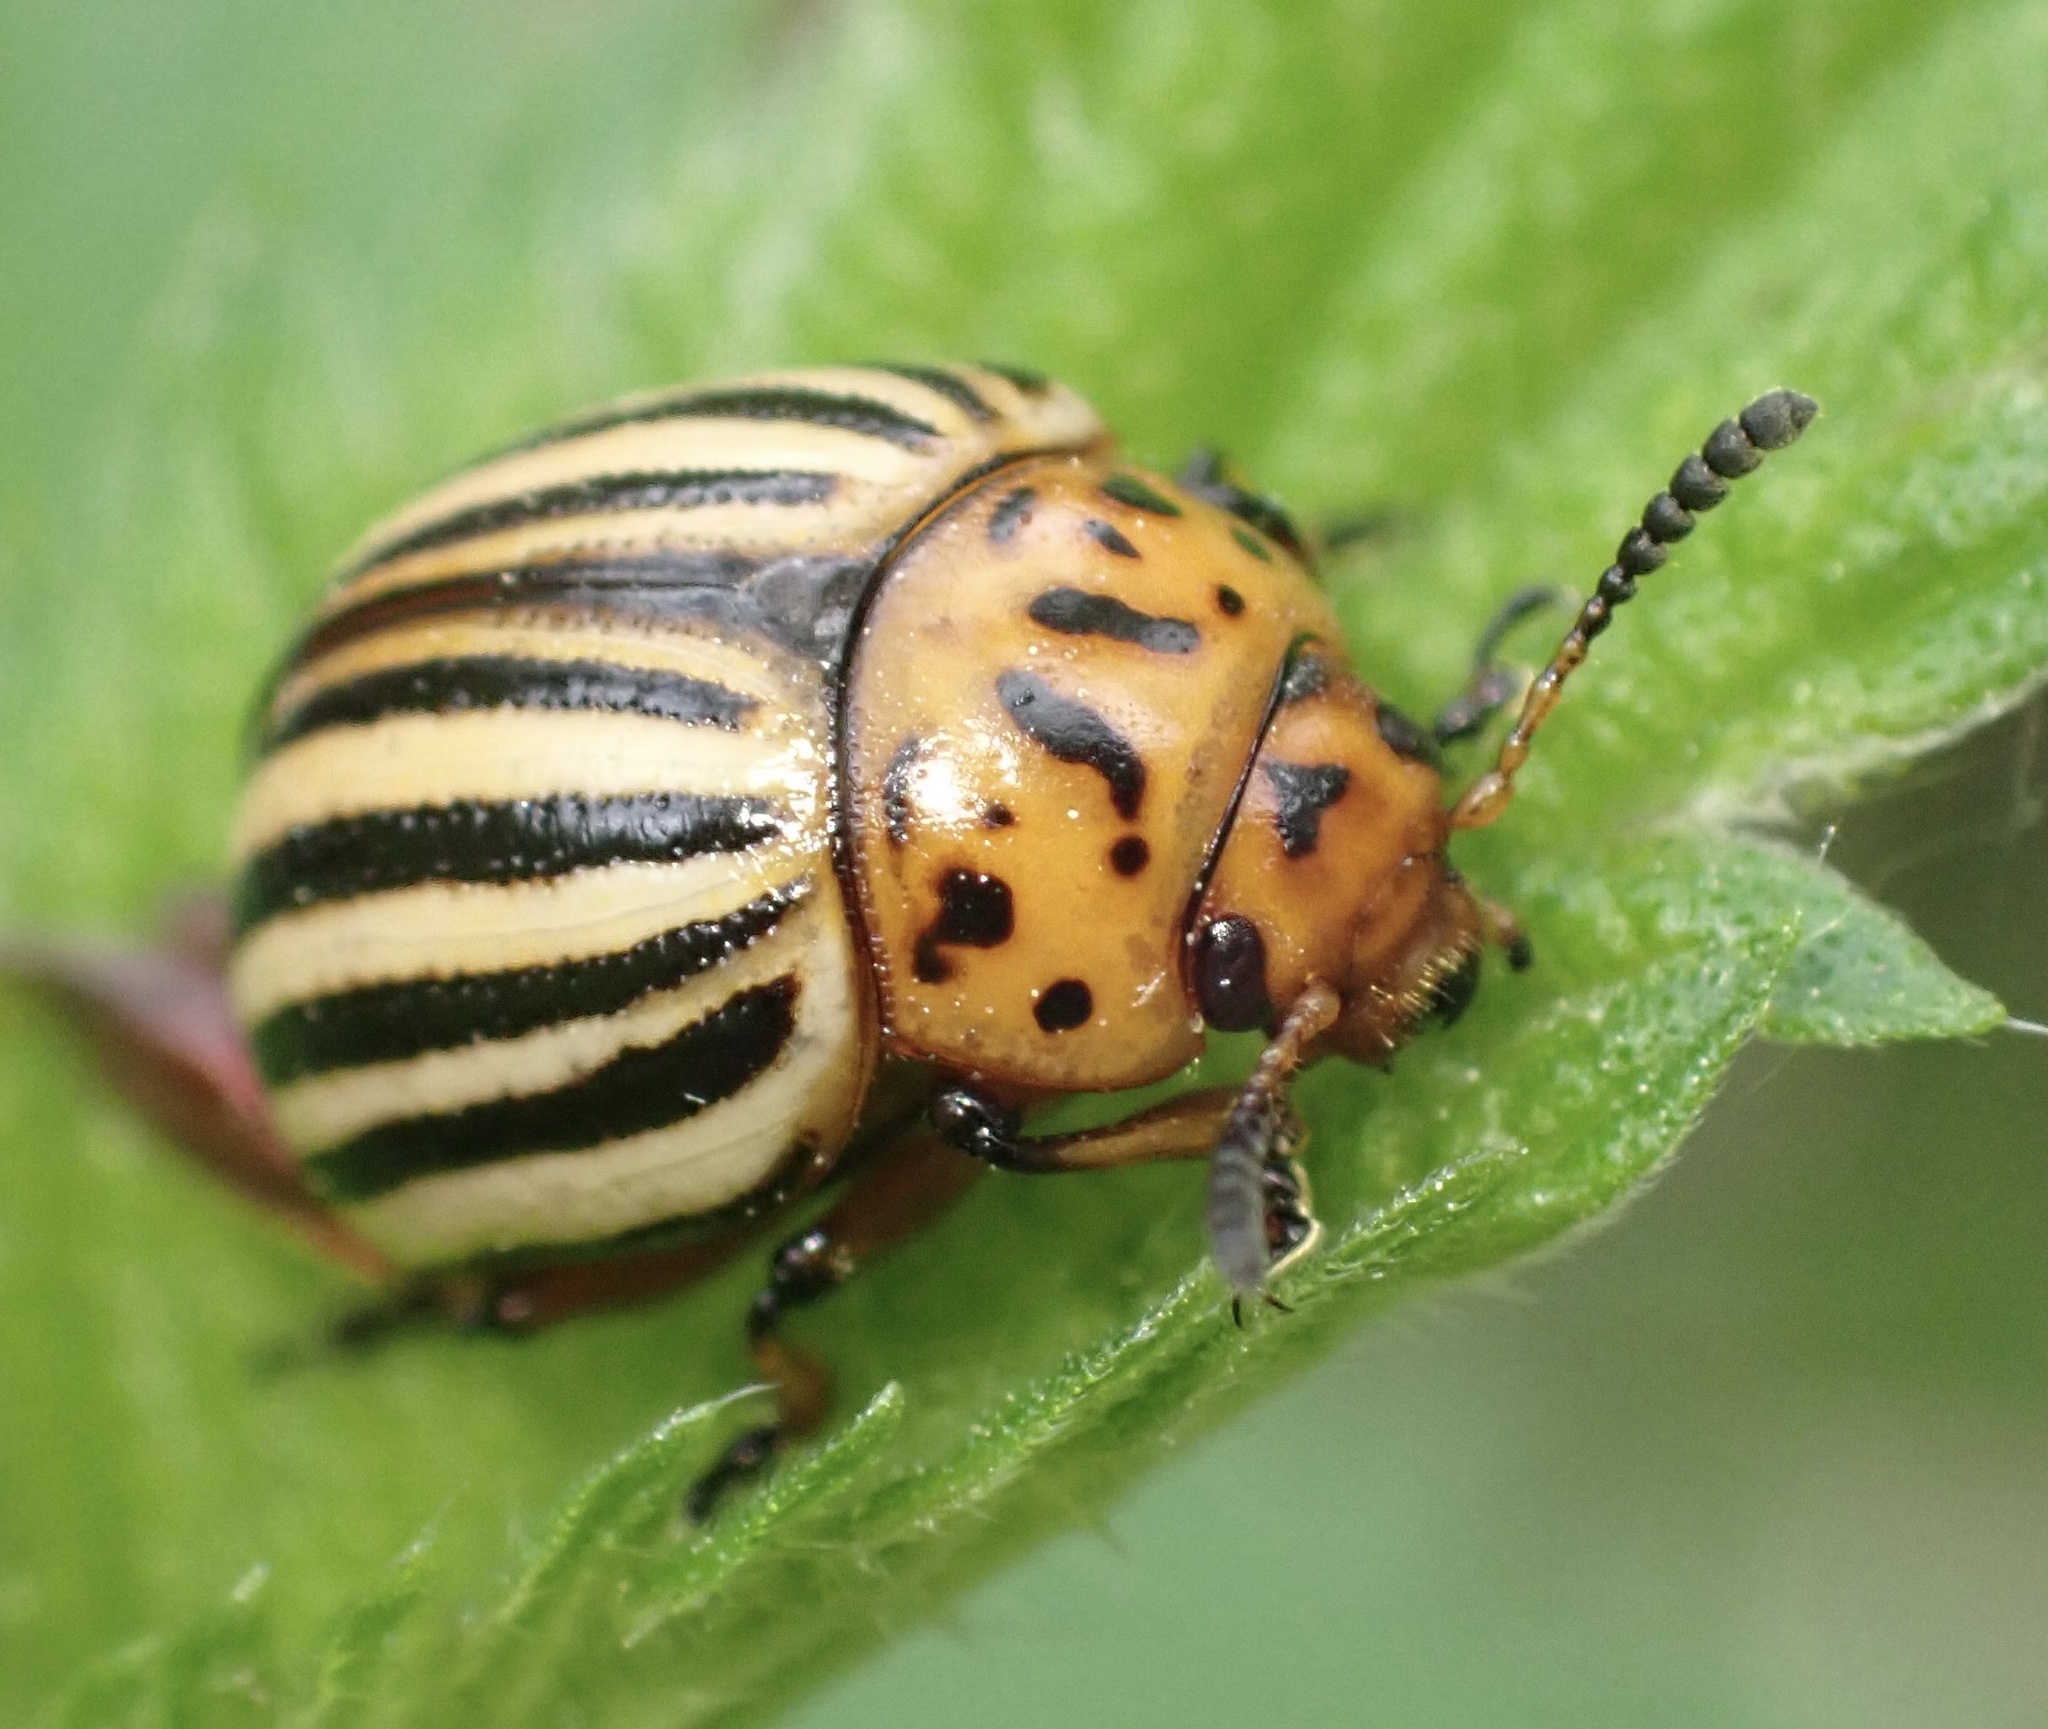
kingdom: Animalia
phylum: Arthropoda
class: Insecta
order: Coleoptera
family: Chrysomelidae
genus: Leptinotarsa
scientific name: Leptinotarsa decemlineata
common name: Colorado potato beetle
